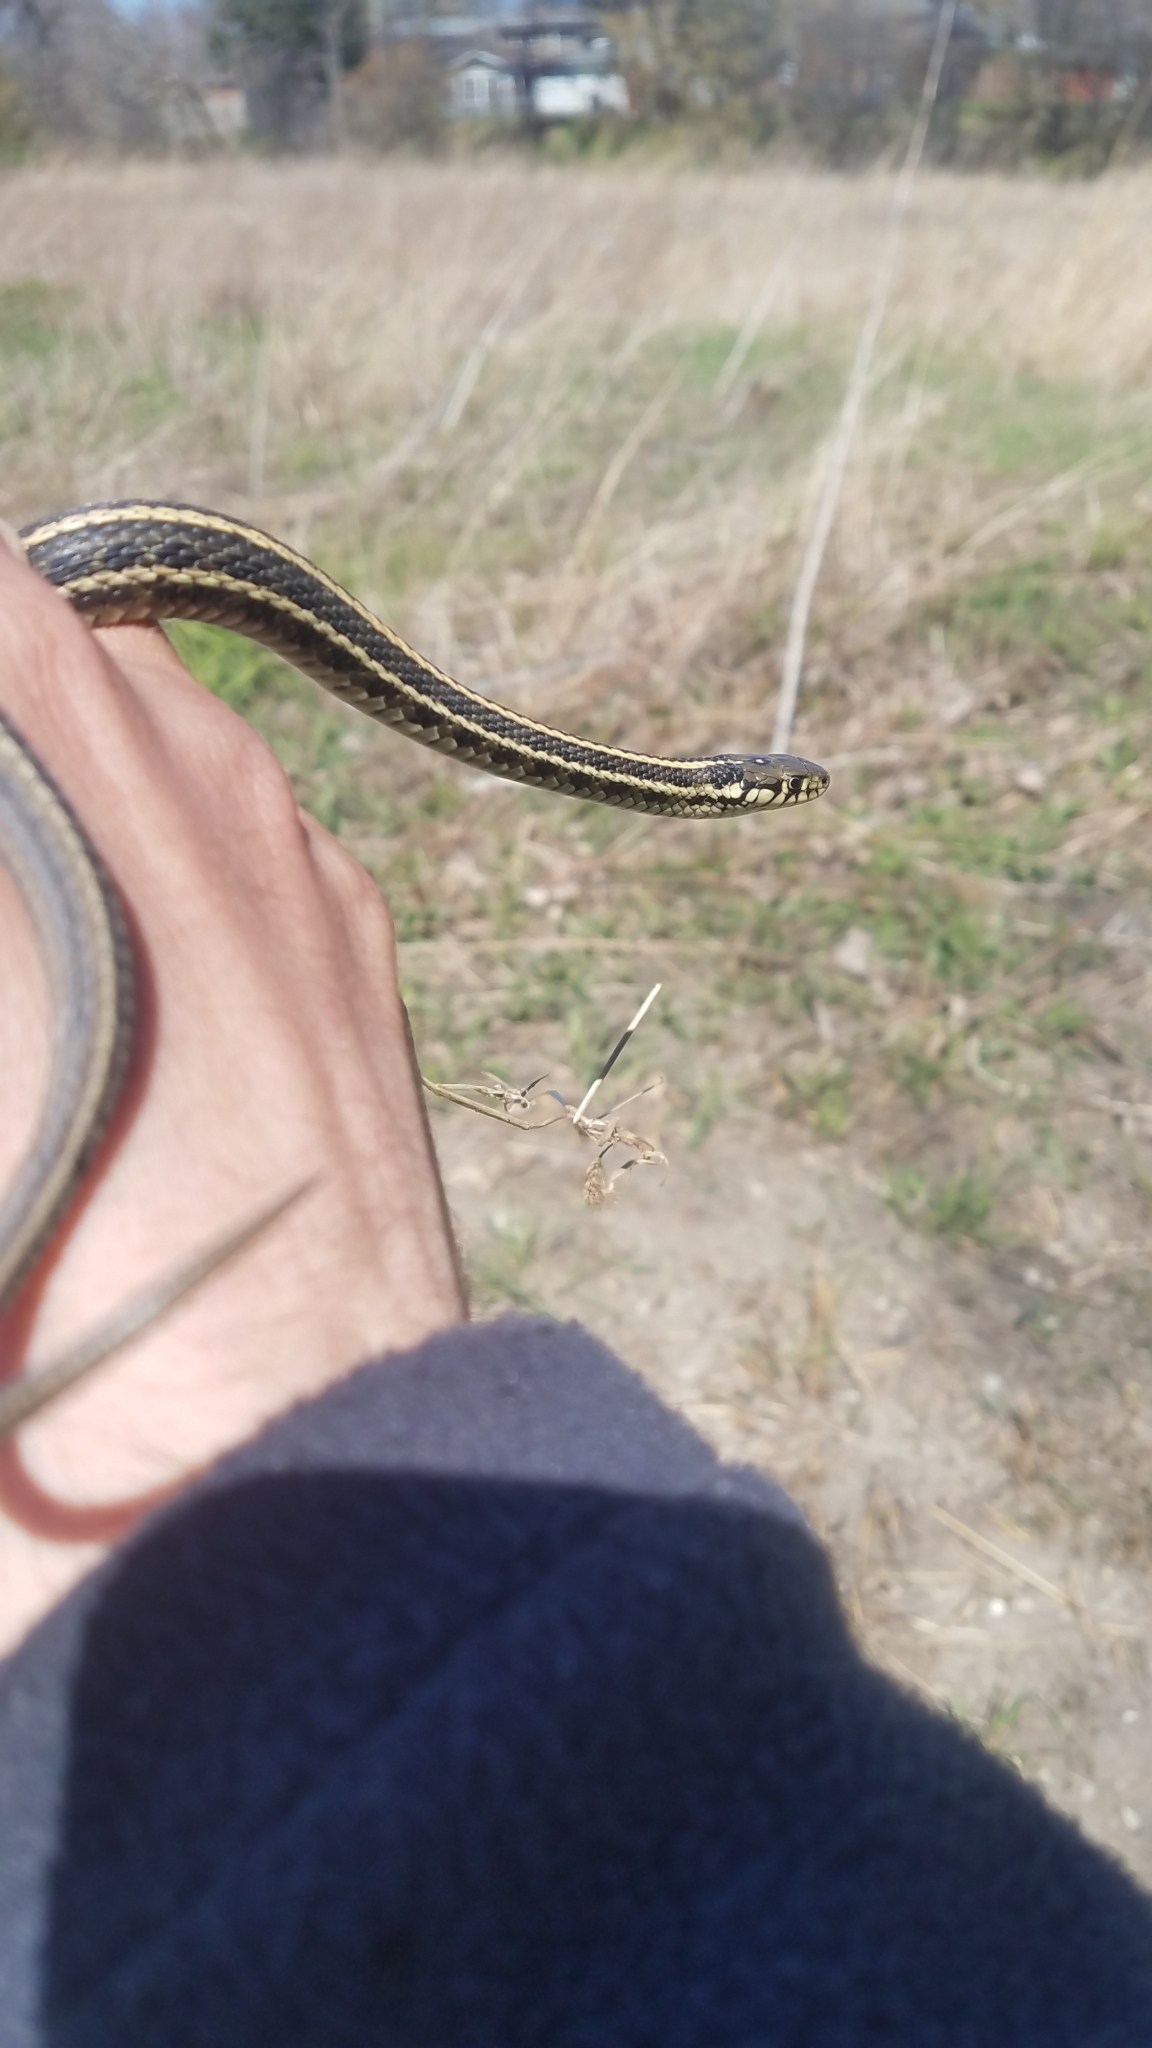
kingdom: Animalia
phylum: Chordata
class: Squamata
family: Colubridae
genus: Thamnophis
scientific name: Thamnophis radix
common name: Plains garter snake
